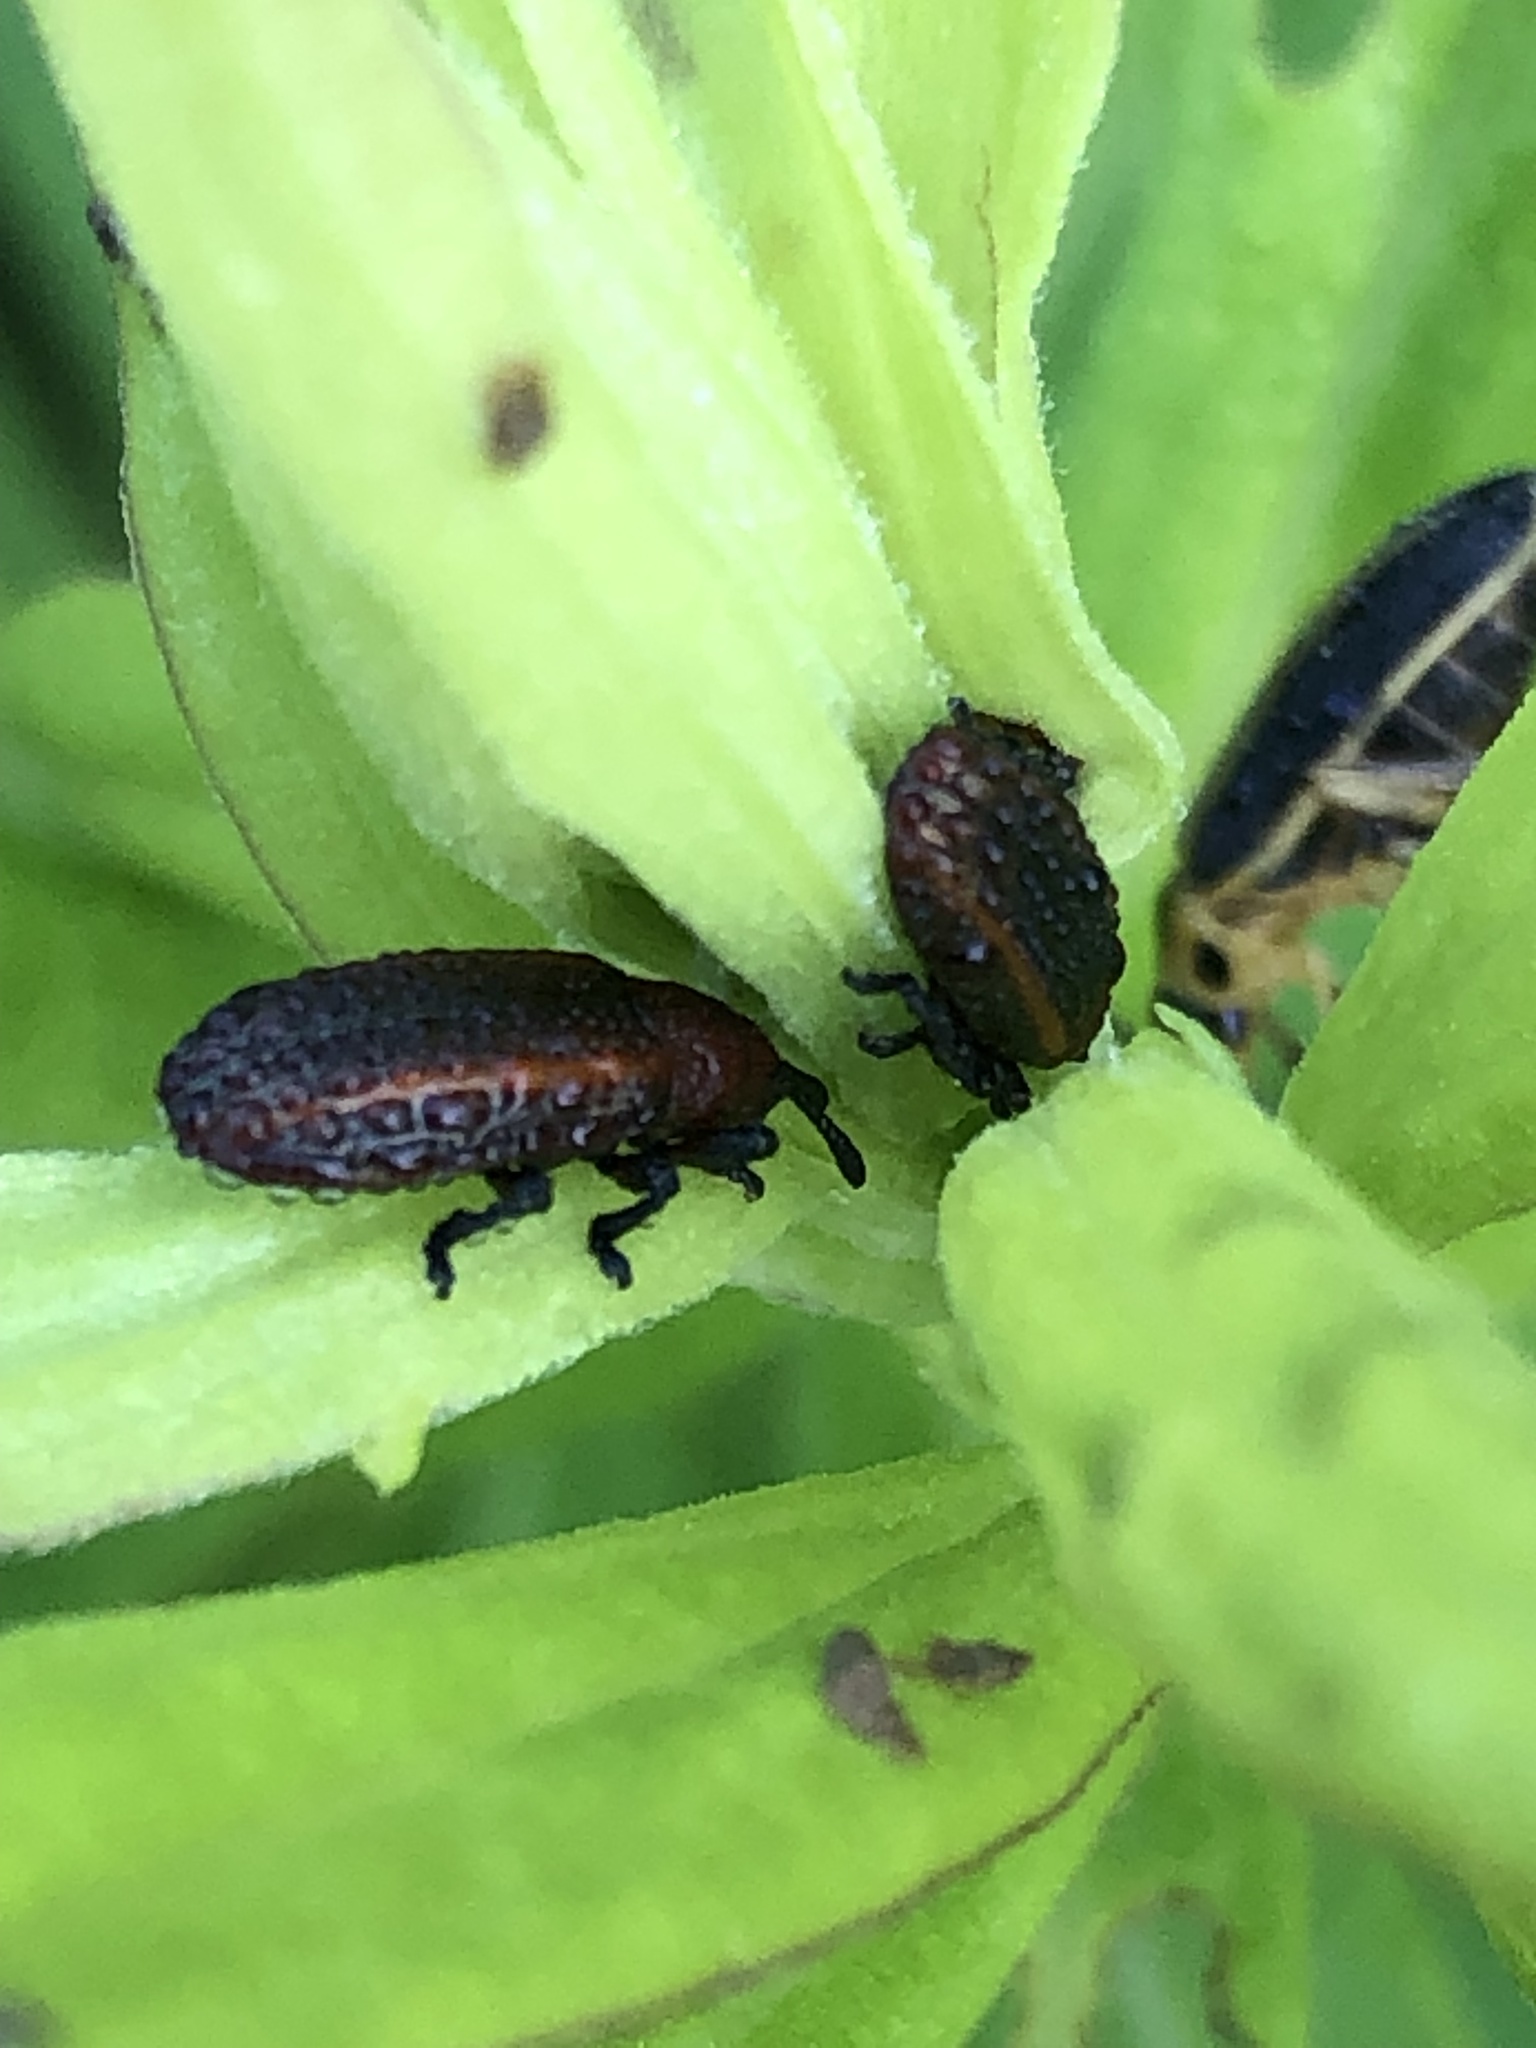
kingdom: Animalia
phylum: Arthropoda
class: Insecta
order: Coleoptera
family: Chrysomelidae
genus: Microrhopala
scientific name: Microrhopala vittata
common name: Goldenrod leaf miner beetle
